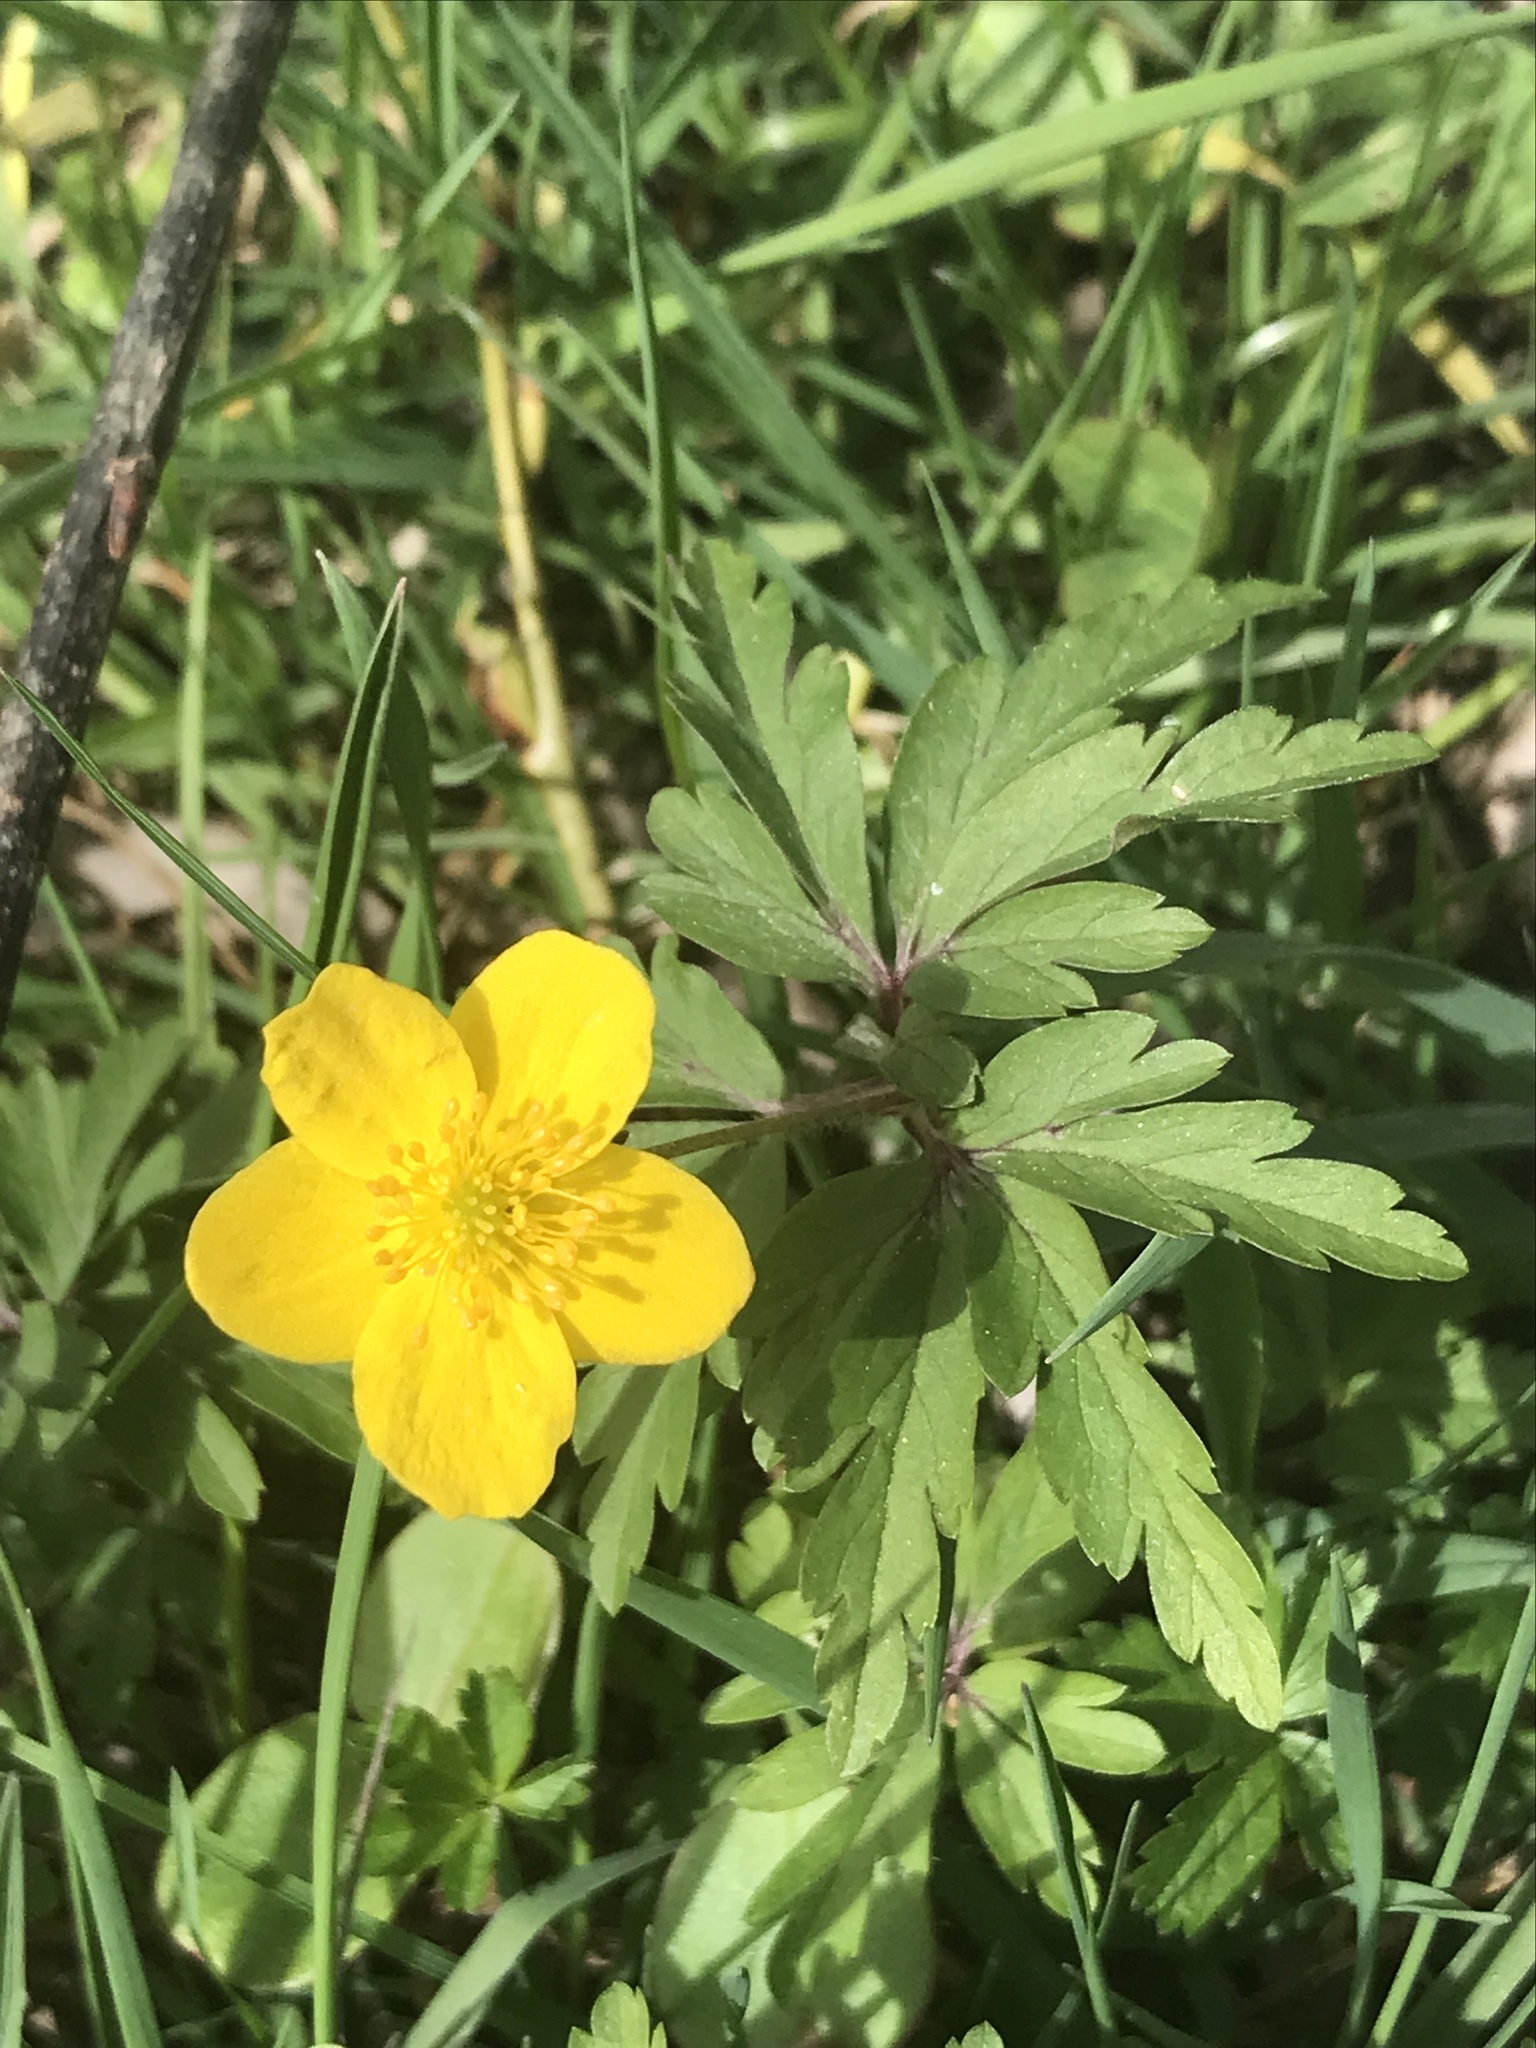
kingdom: Plantae
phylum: Tracheophyta
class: Magnoliopsida
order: Ranunculales
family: Ranunculaceae
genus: Anemone
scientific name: Anemone ranunculoides
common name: Yellow anemone
